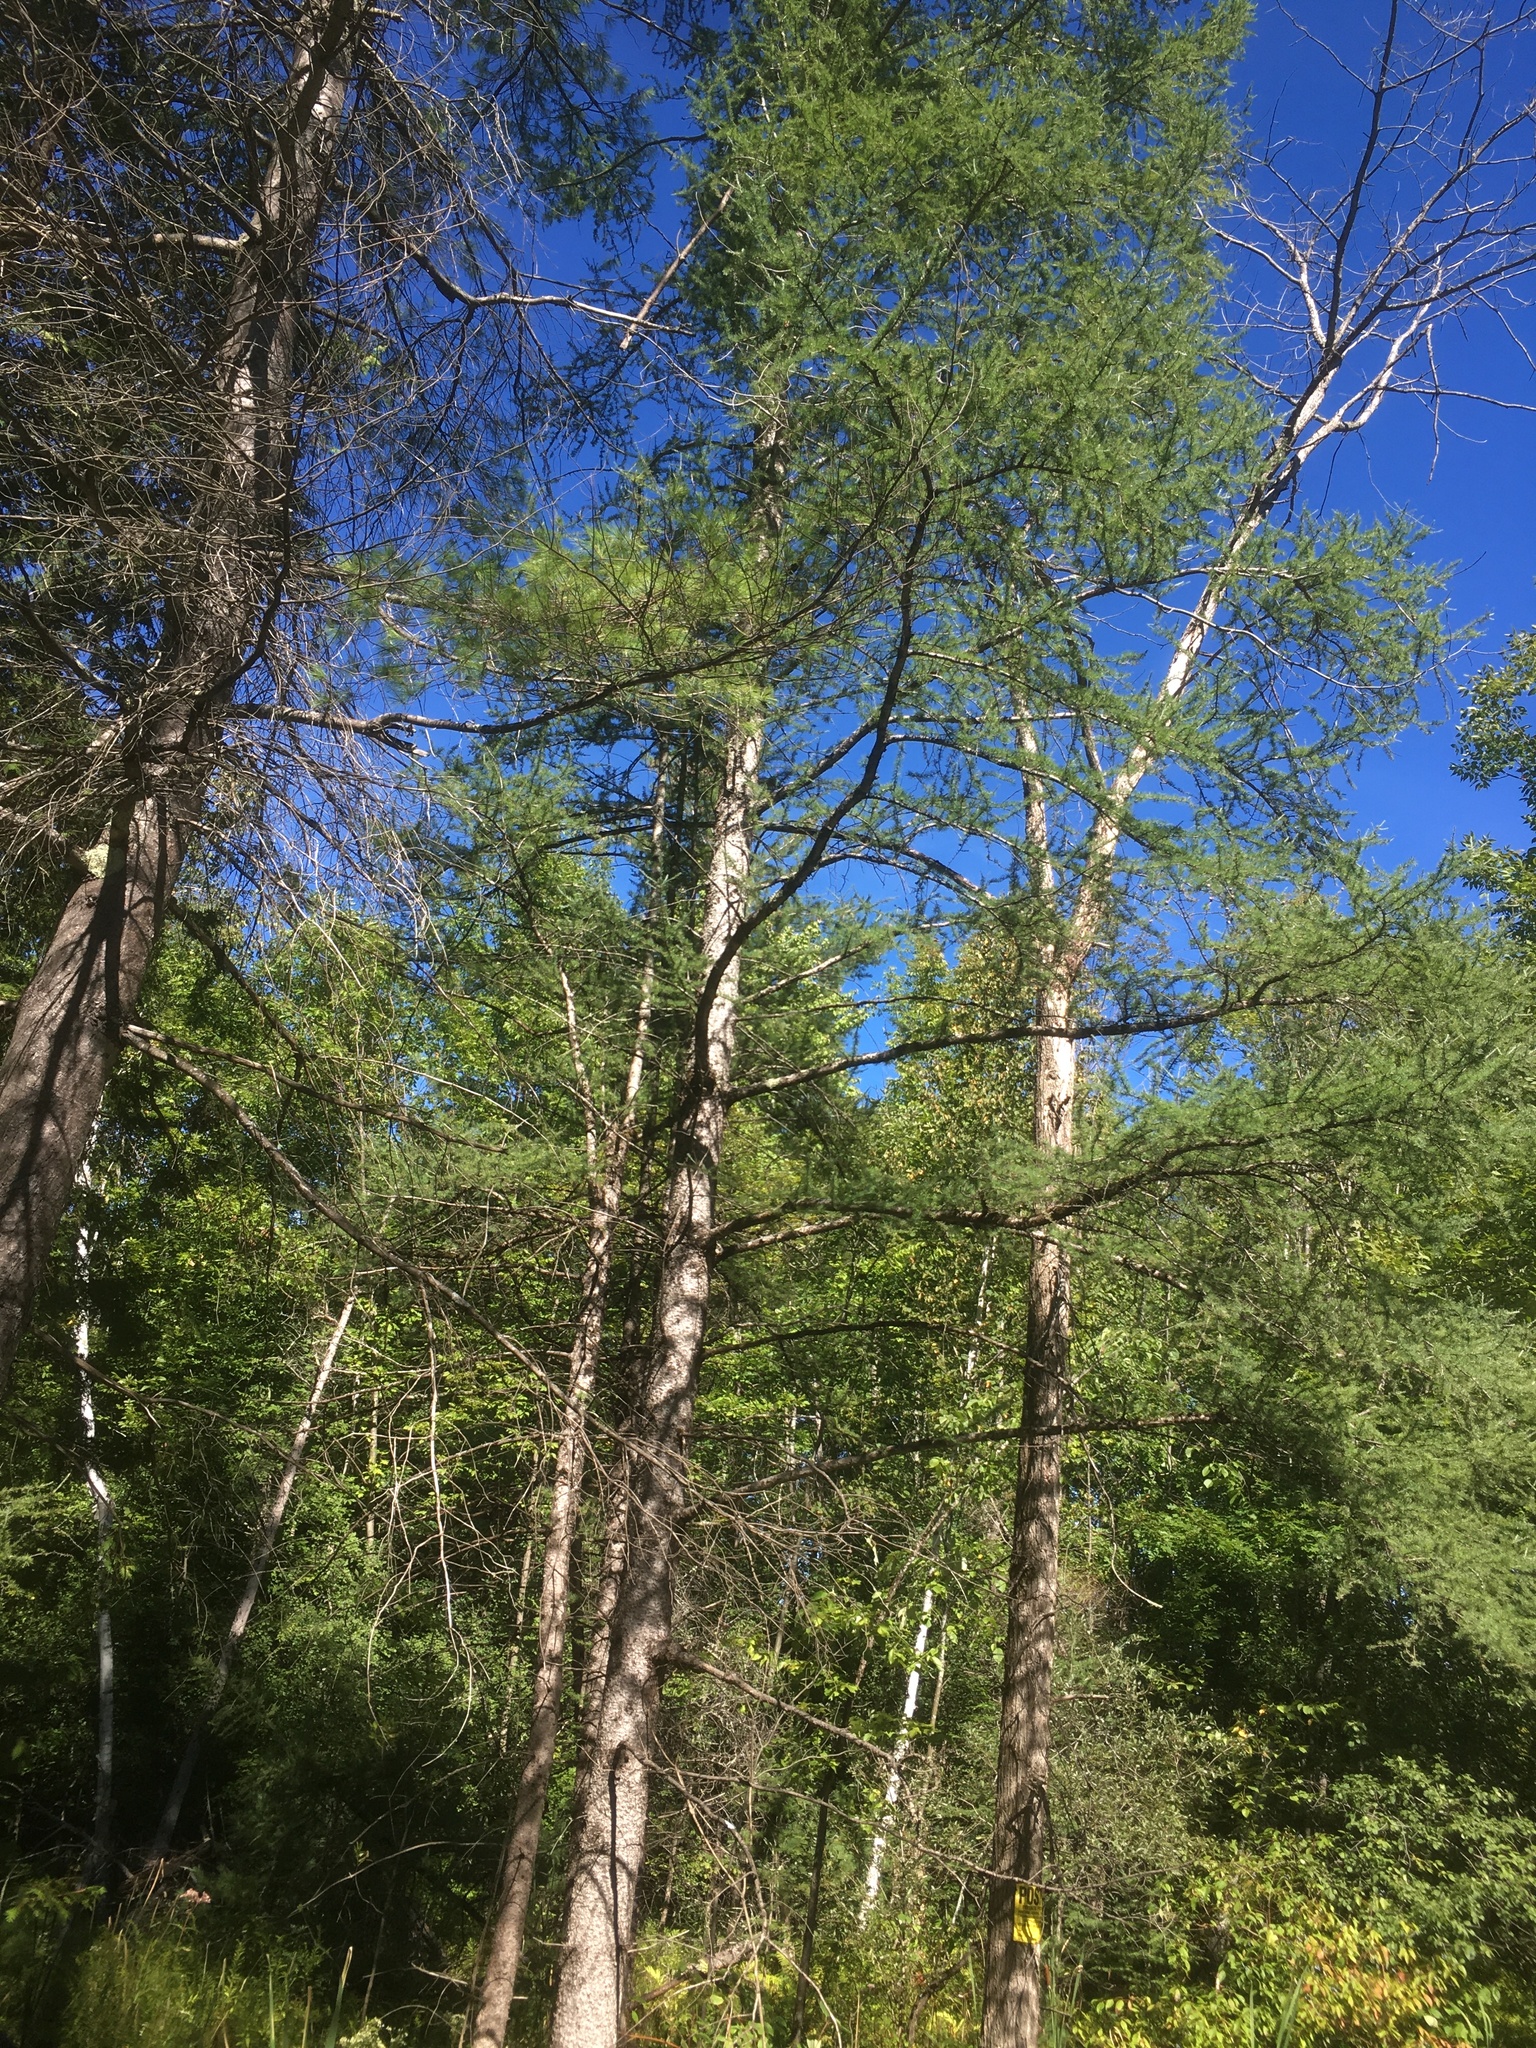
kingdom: Plantae
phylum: Tracheophyta
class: Pinopsida
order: Pinales
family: Pinaceae
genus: Larix
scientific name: Larix laricina
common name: American larch
